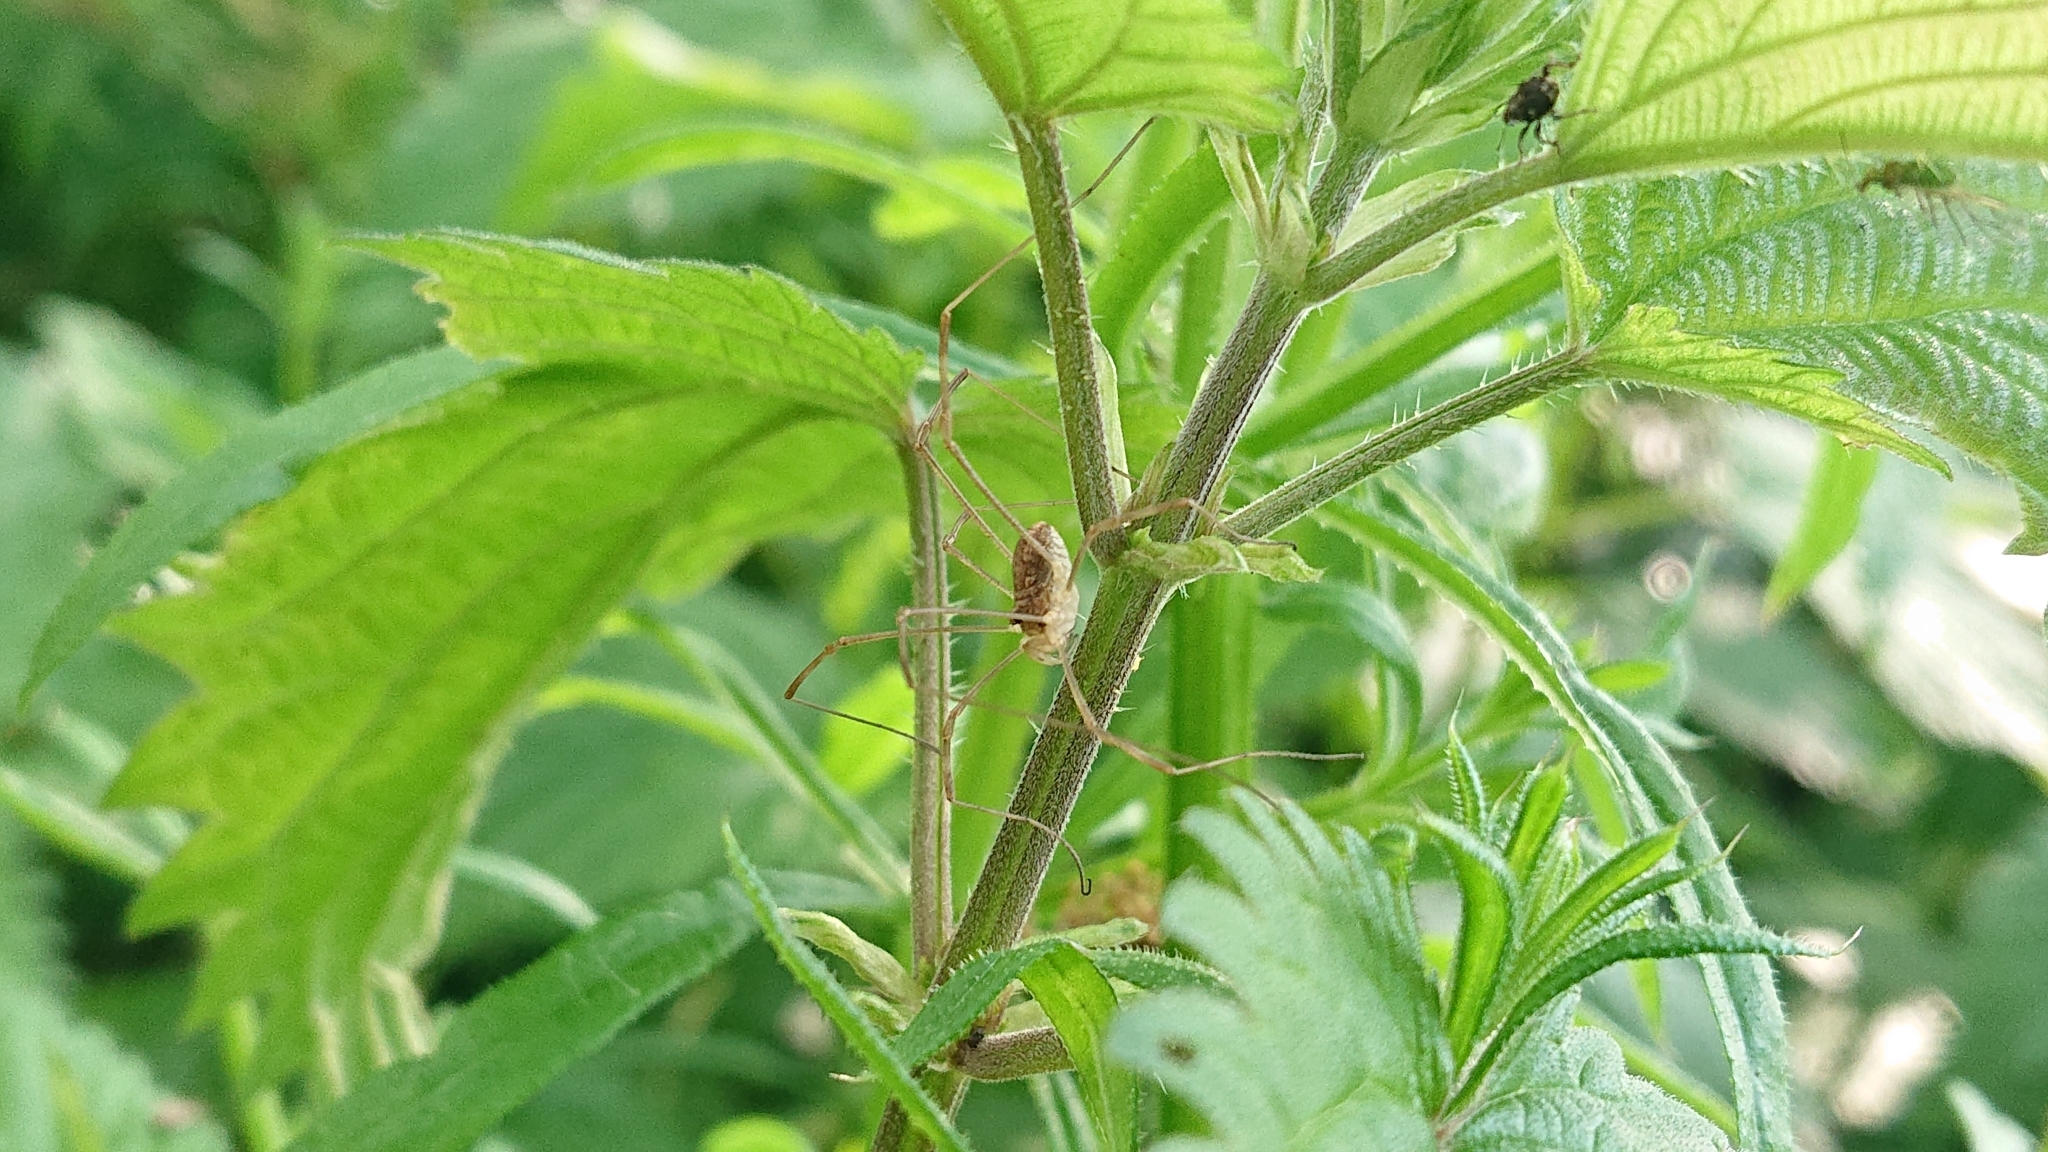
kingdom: Animalia
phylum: Arthropoda
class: Arachnida
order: Opiliones
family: Phalangiidae
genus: Rilaena
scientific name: Rilaena triangularis
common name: Spring harvestman
